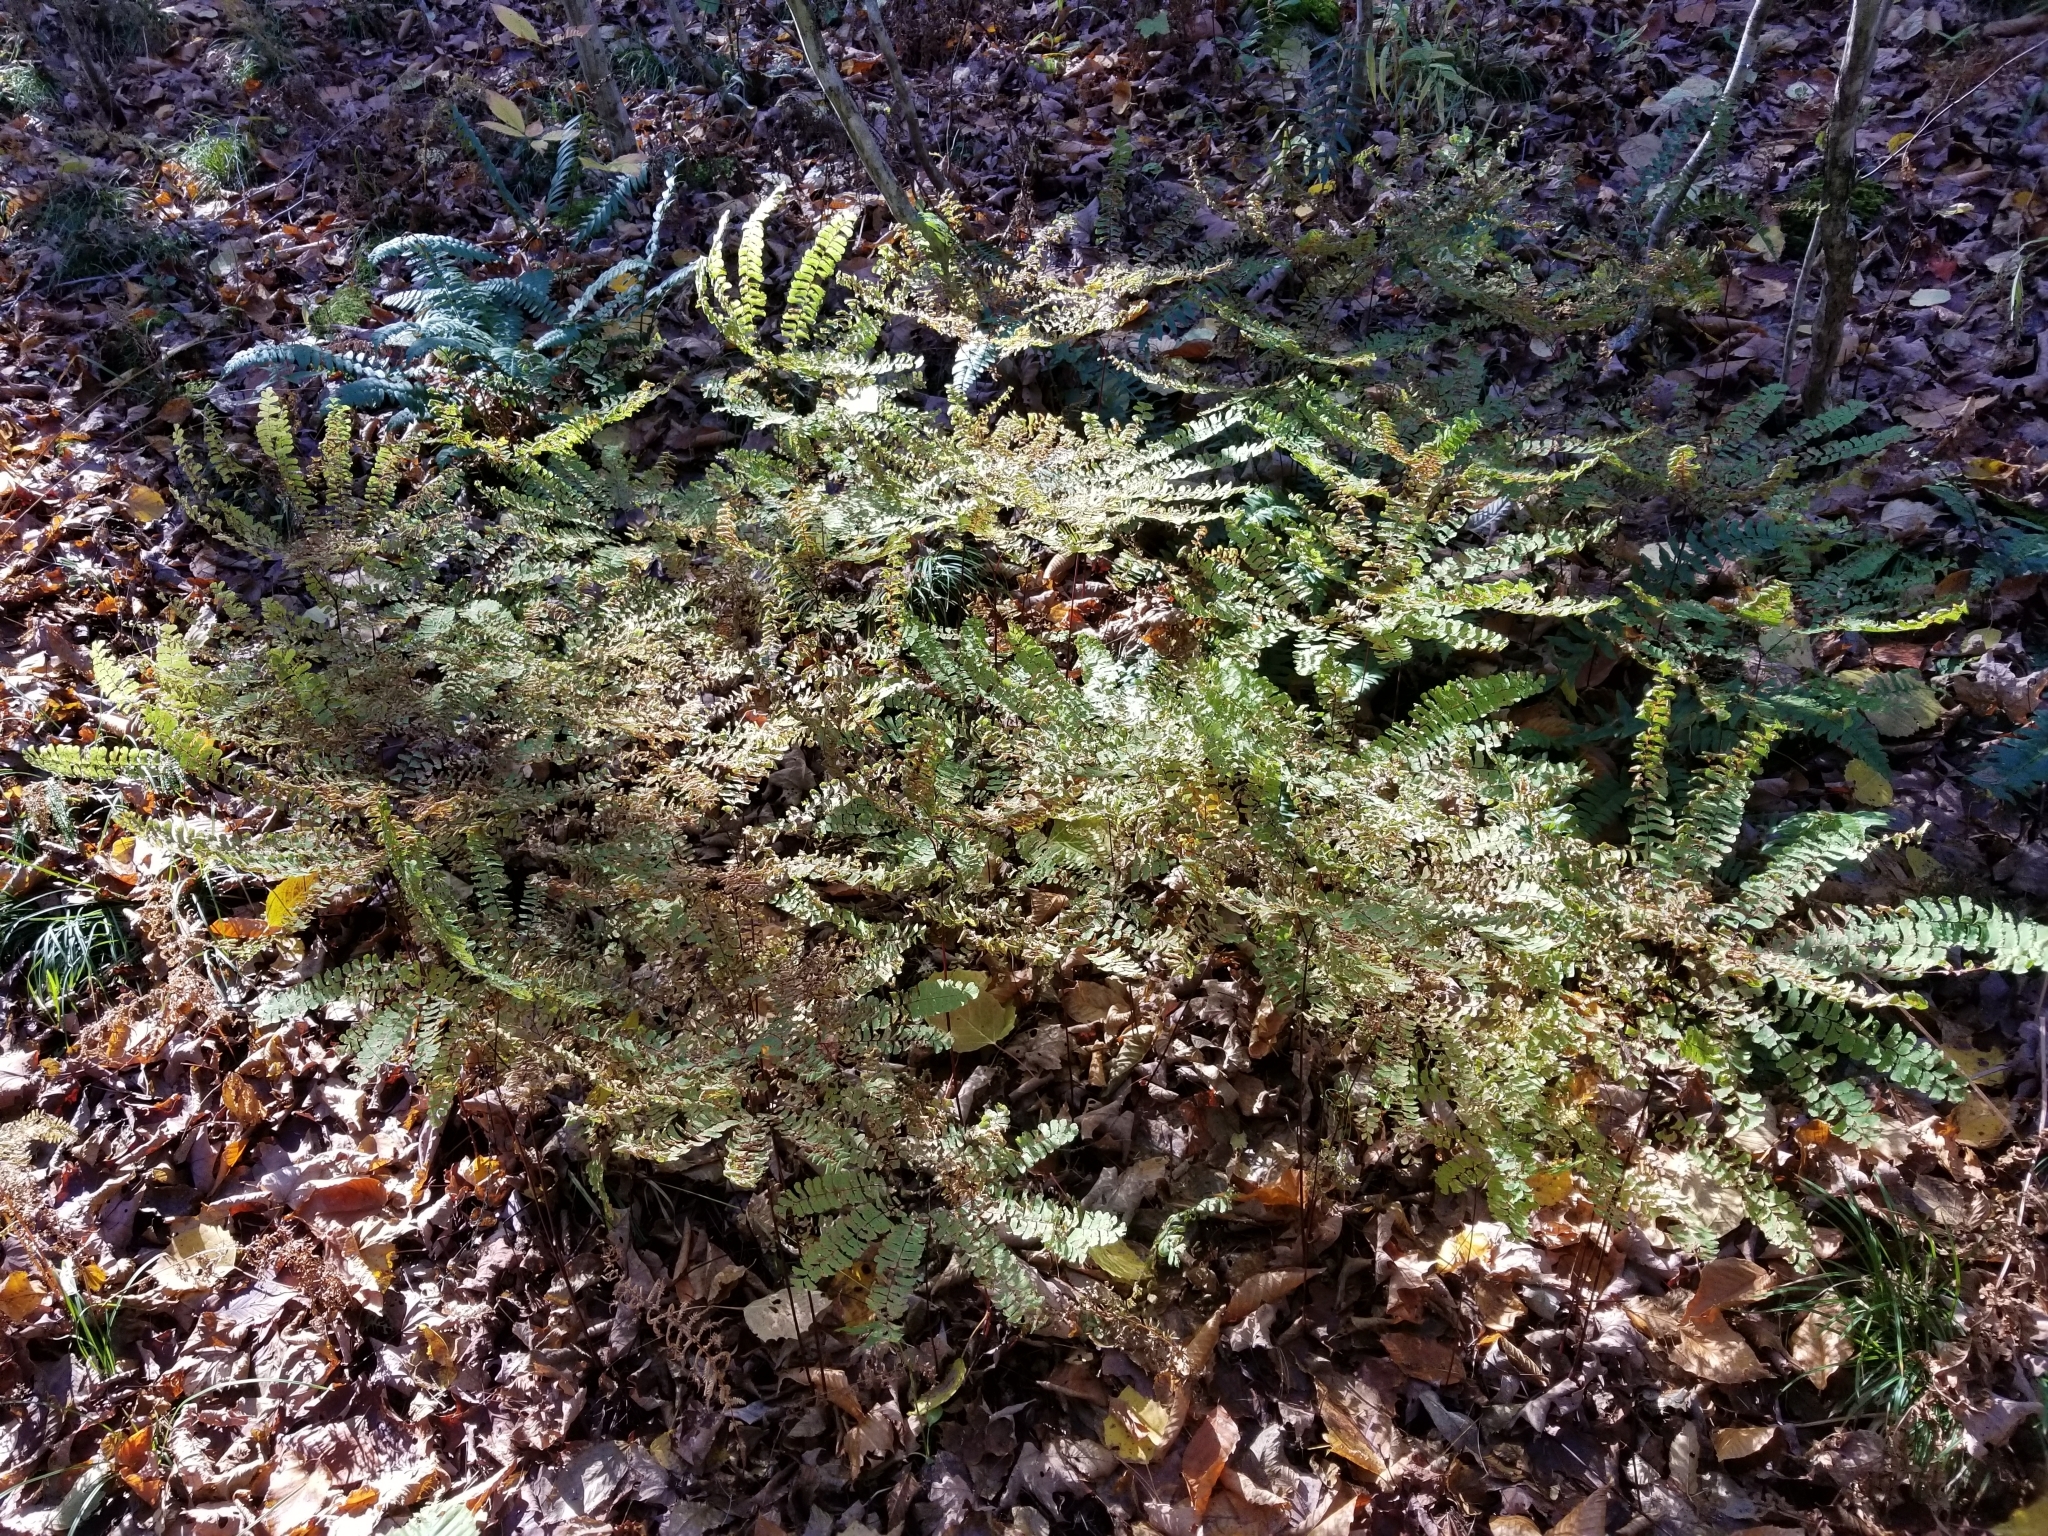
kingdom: Plantae
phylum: Tracheophyta
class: Polypodiopsida
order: Polypodiales
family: Pteridaceae
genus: Adiantum
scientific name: Adiantum pedatum
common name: Five-finger fern
